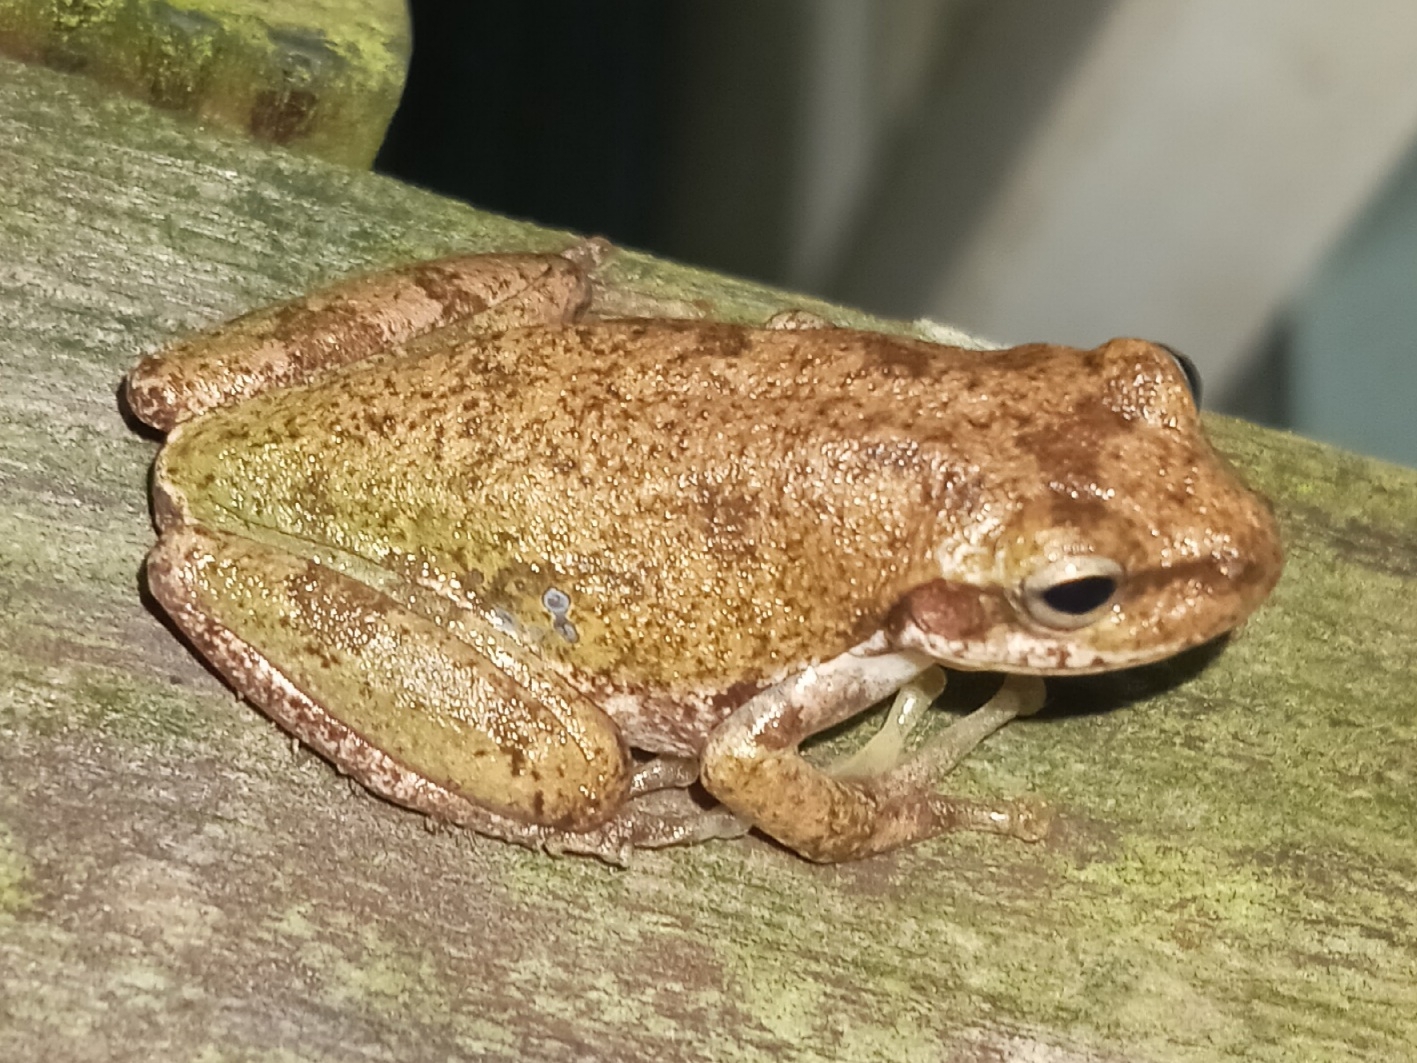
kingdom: Animalia
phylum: Chordata
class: Amphibia
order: Anura
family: Hylidae
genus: Dryophytes
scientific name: Dryophytes squirellus
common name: Squirrel treefrog
